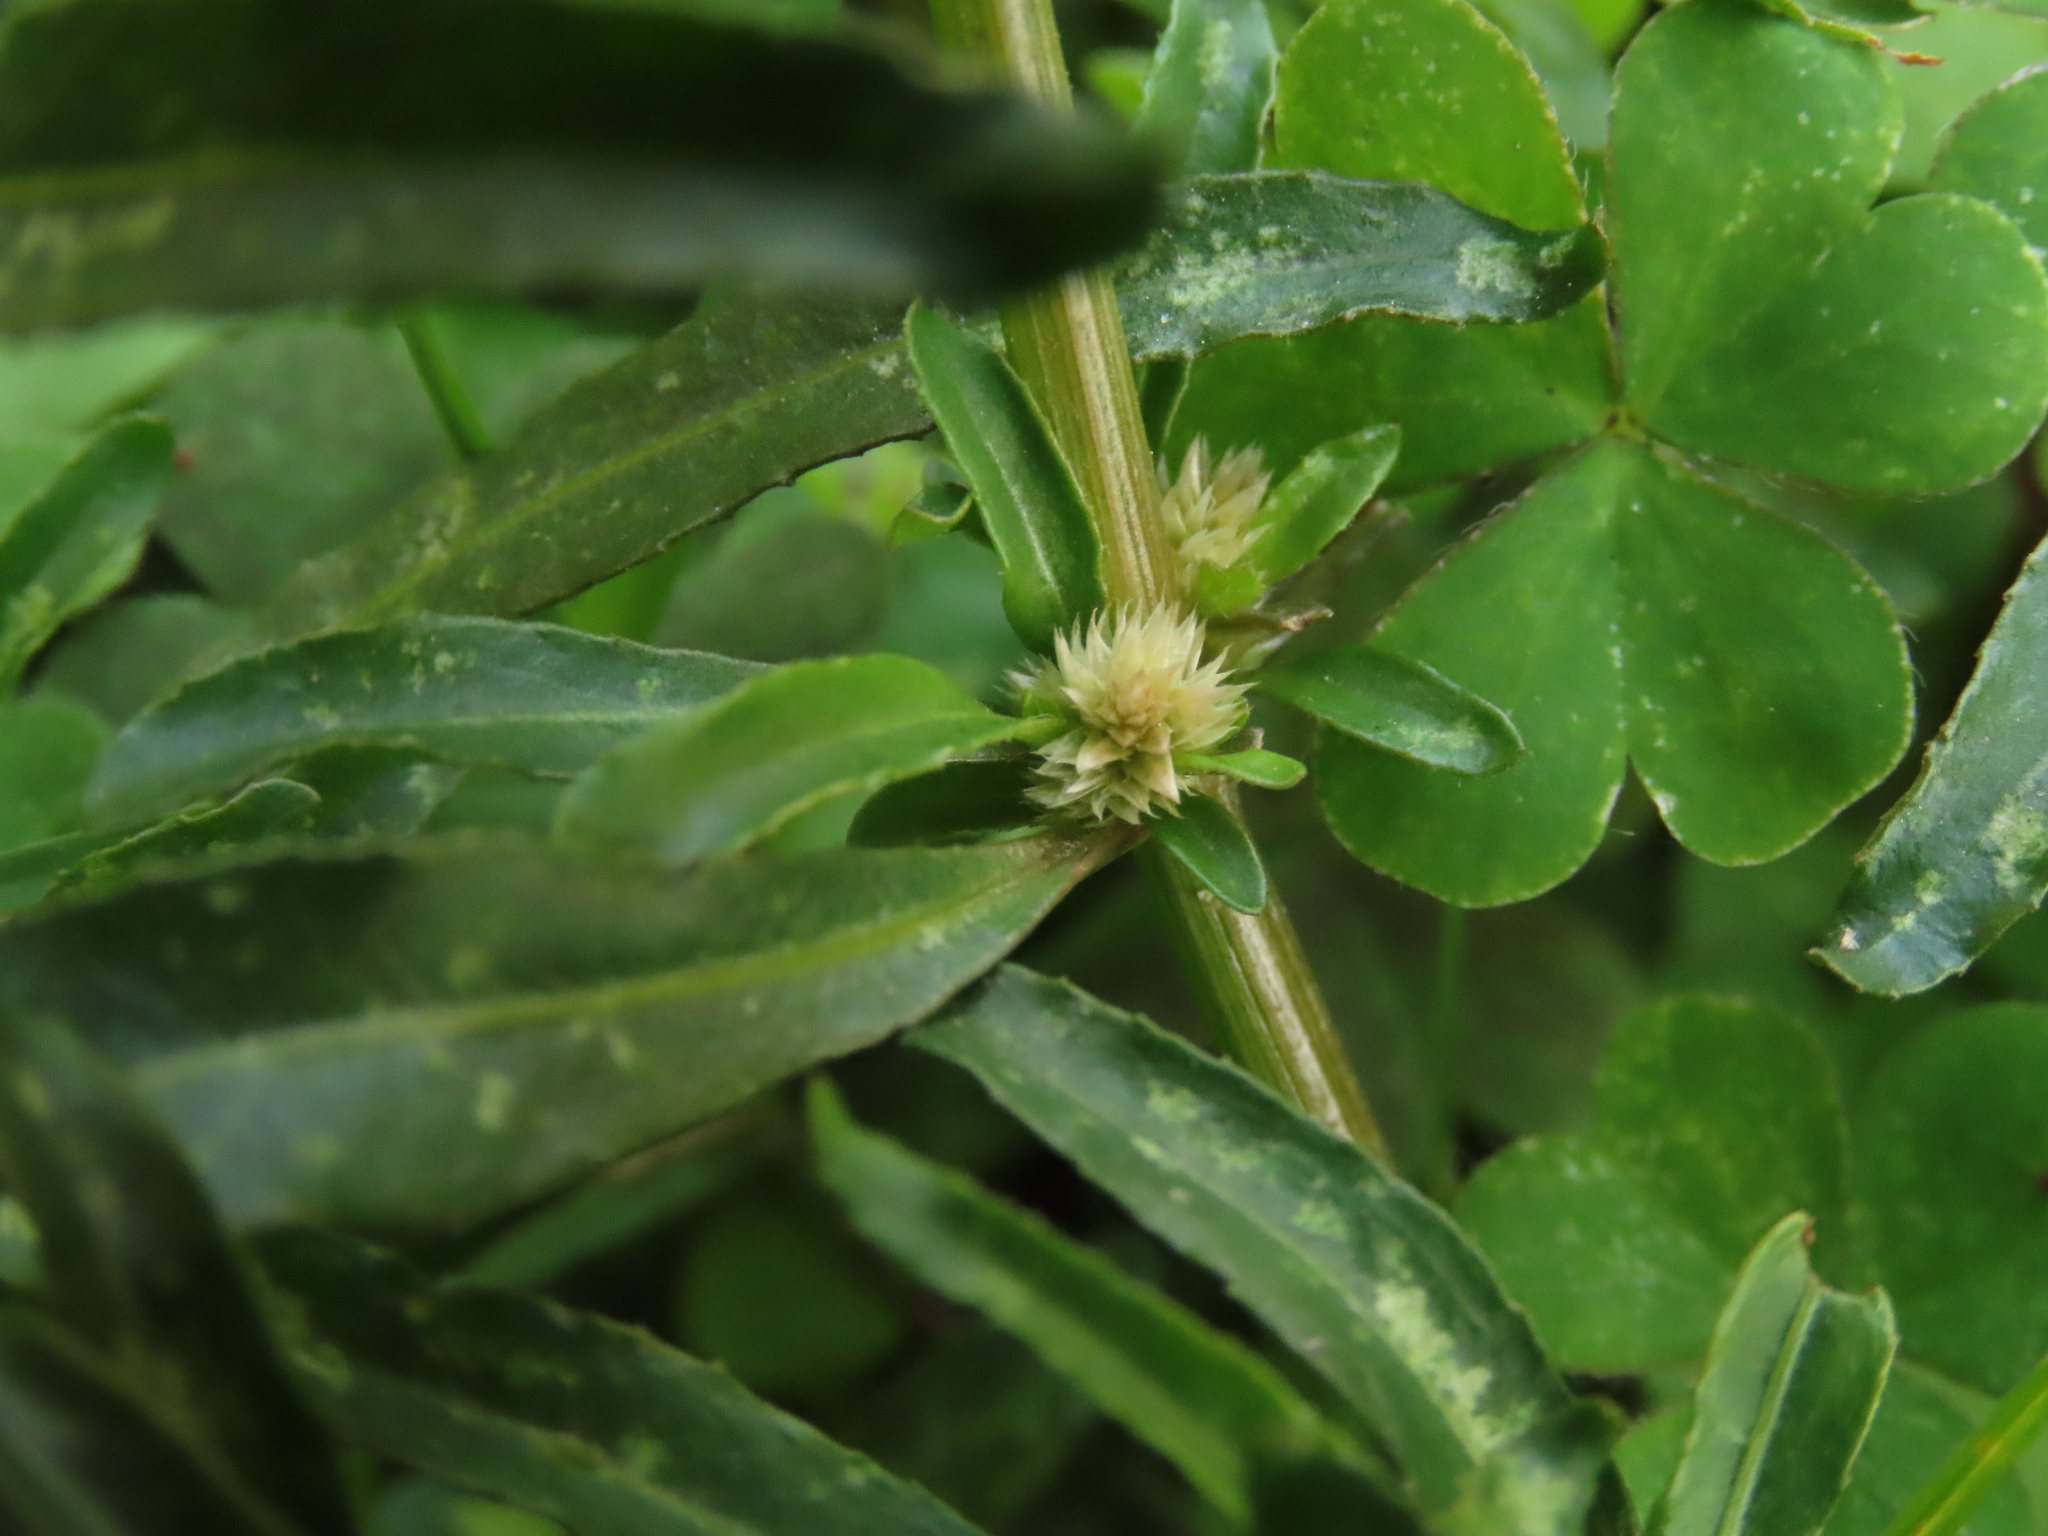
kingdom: Plantae
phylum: Tracheophyta
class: Magnoliopsida
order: Caryophyllales
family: Amaranthaceae
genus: Alternanthera
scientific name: Alternanthera sessilis
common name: Sessile joyweed
